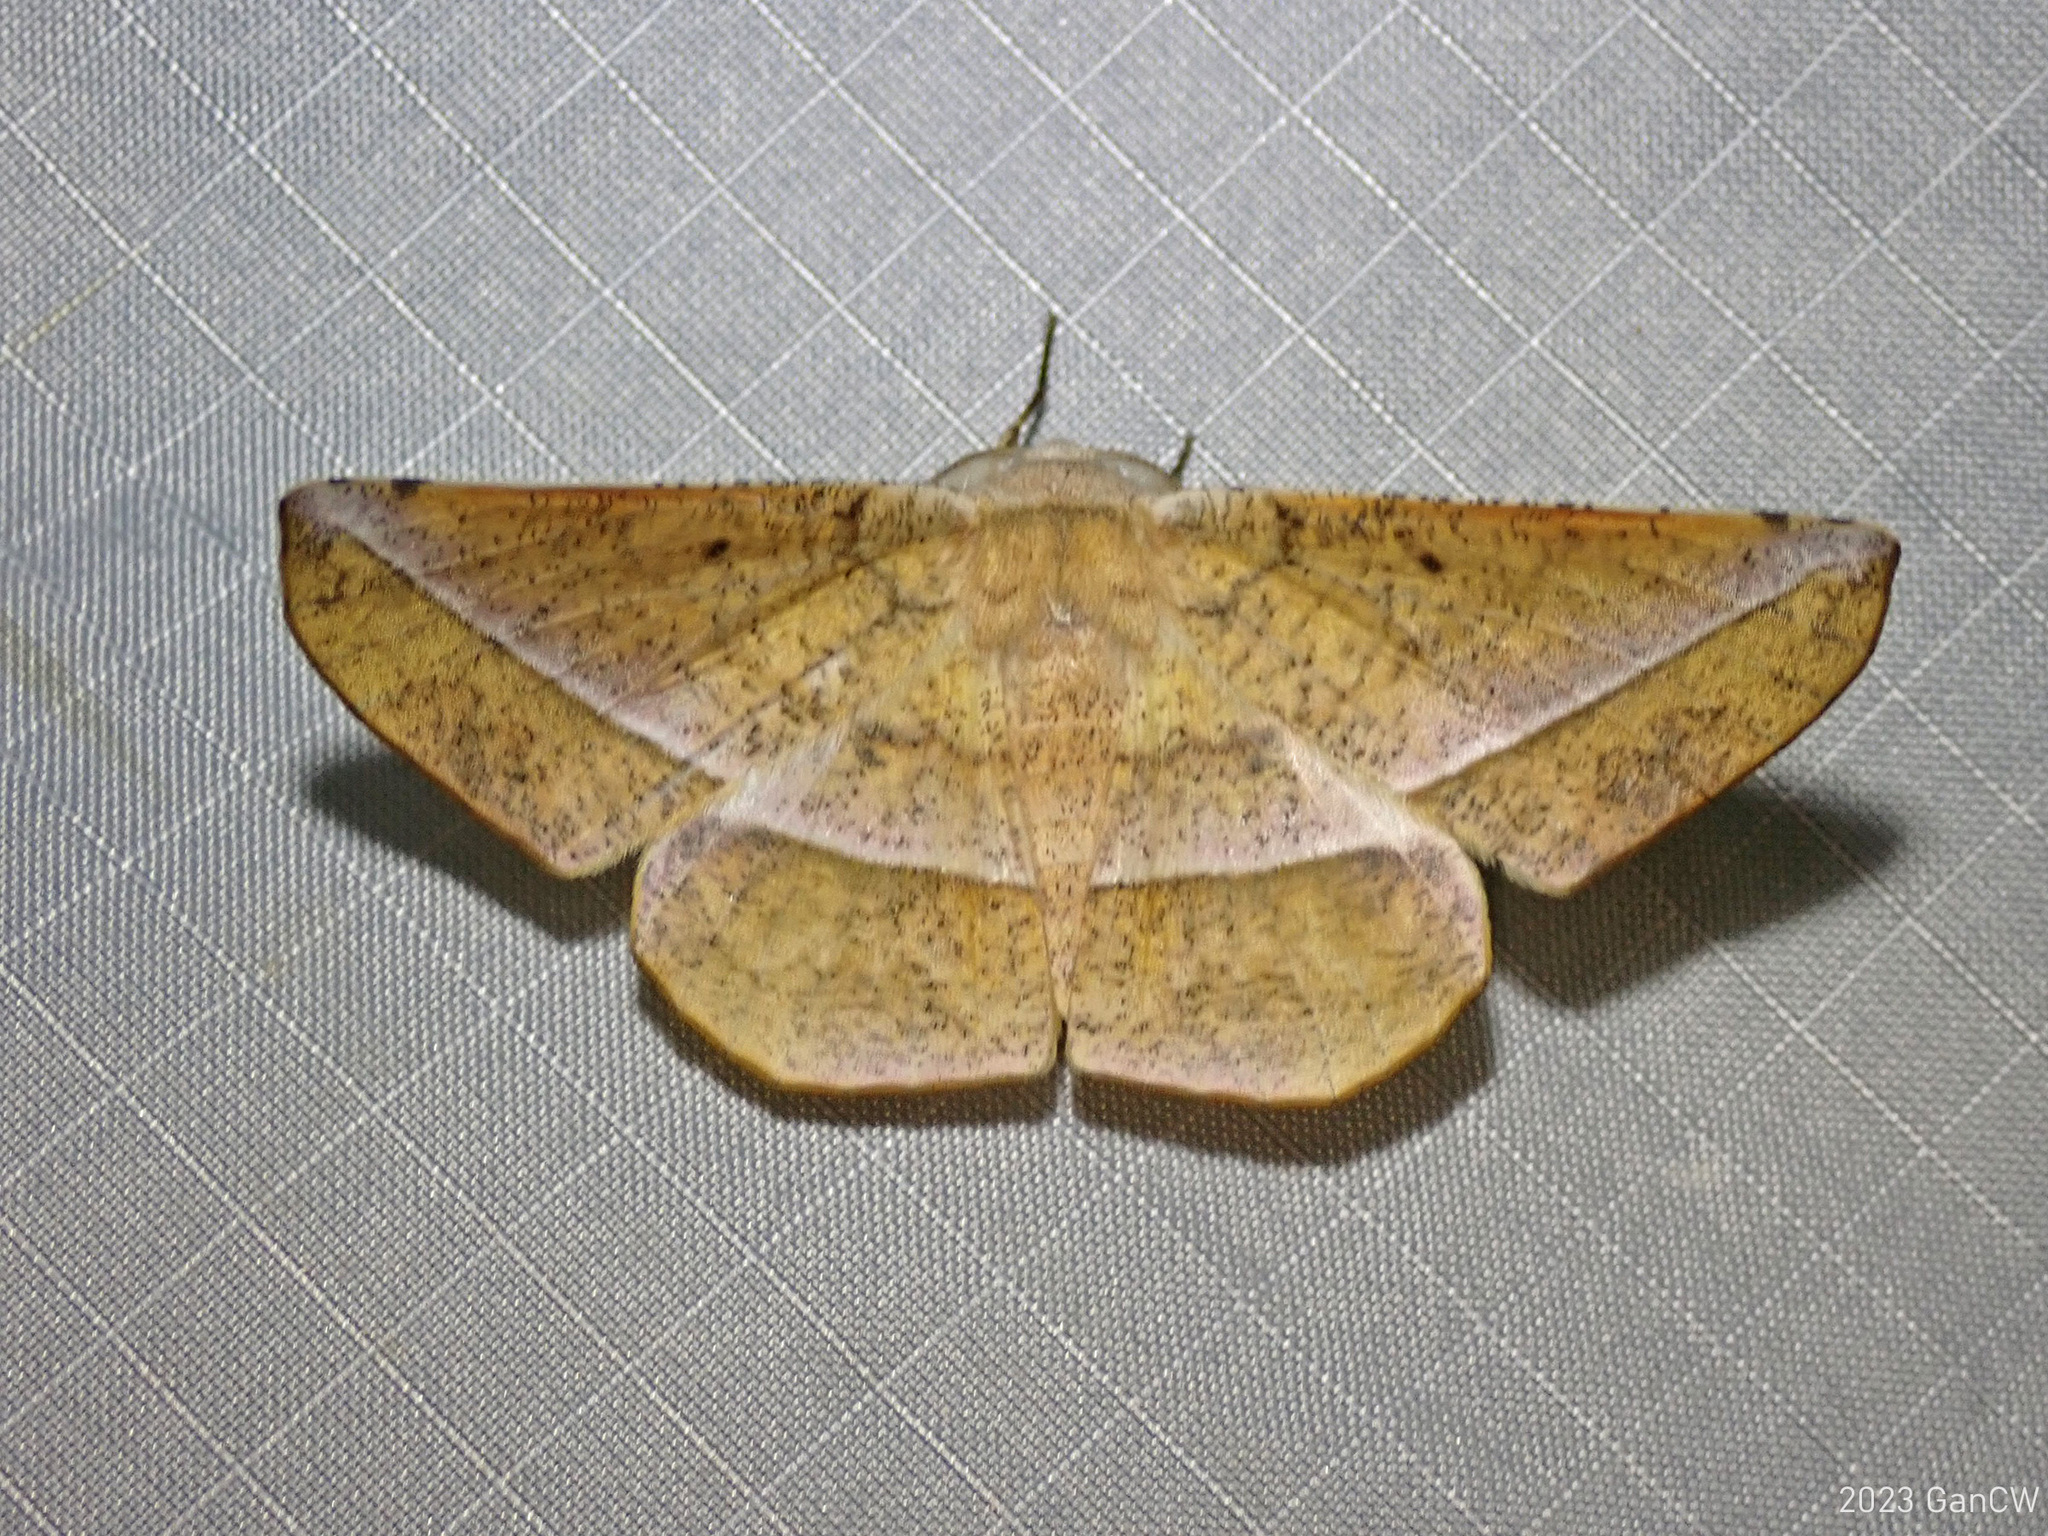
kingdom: Animalia
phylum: Arthropoda
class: Insecta
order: Lepidoptera
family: Geometridae
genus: Sarcinodes
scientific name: Sarcinodes tornubilatus
